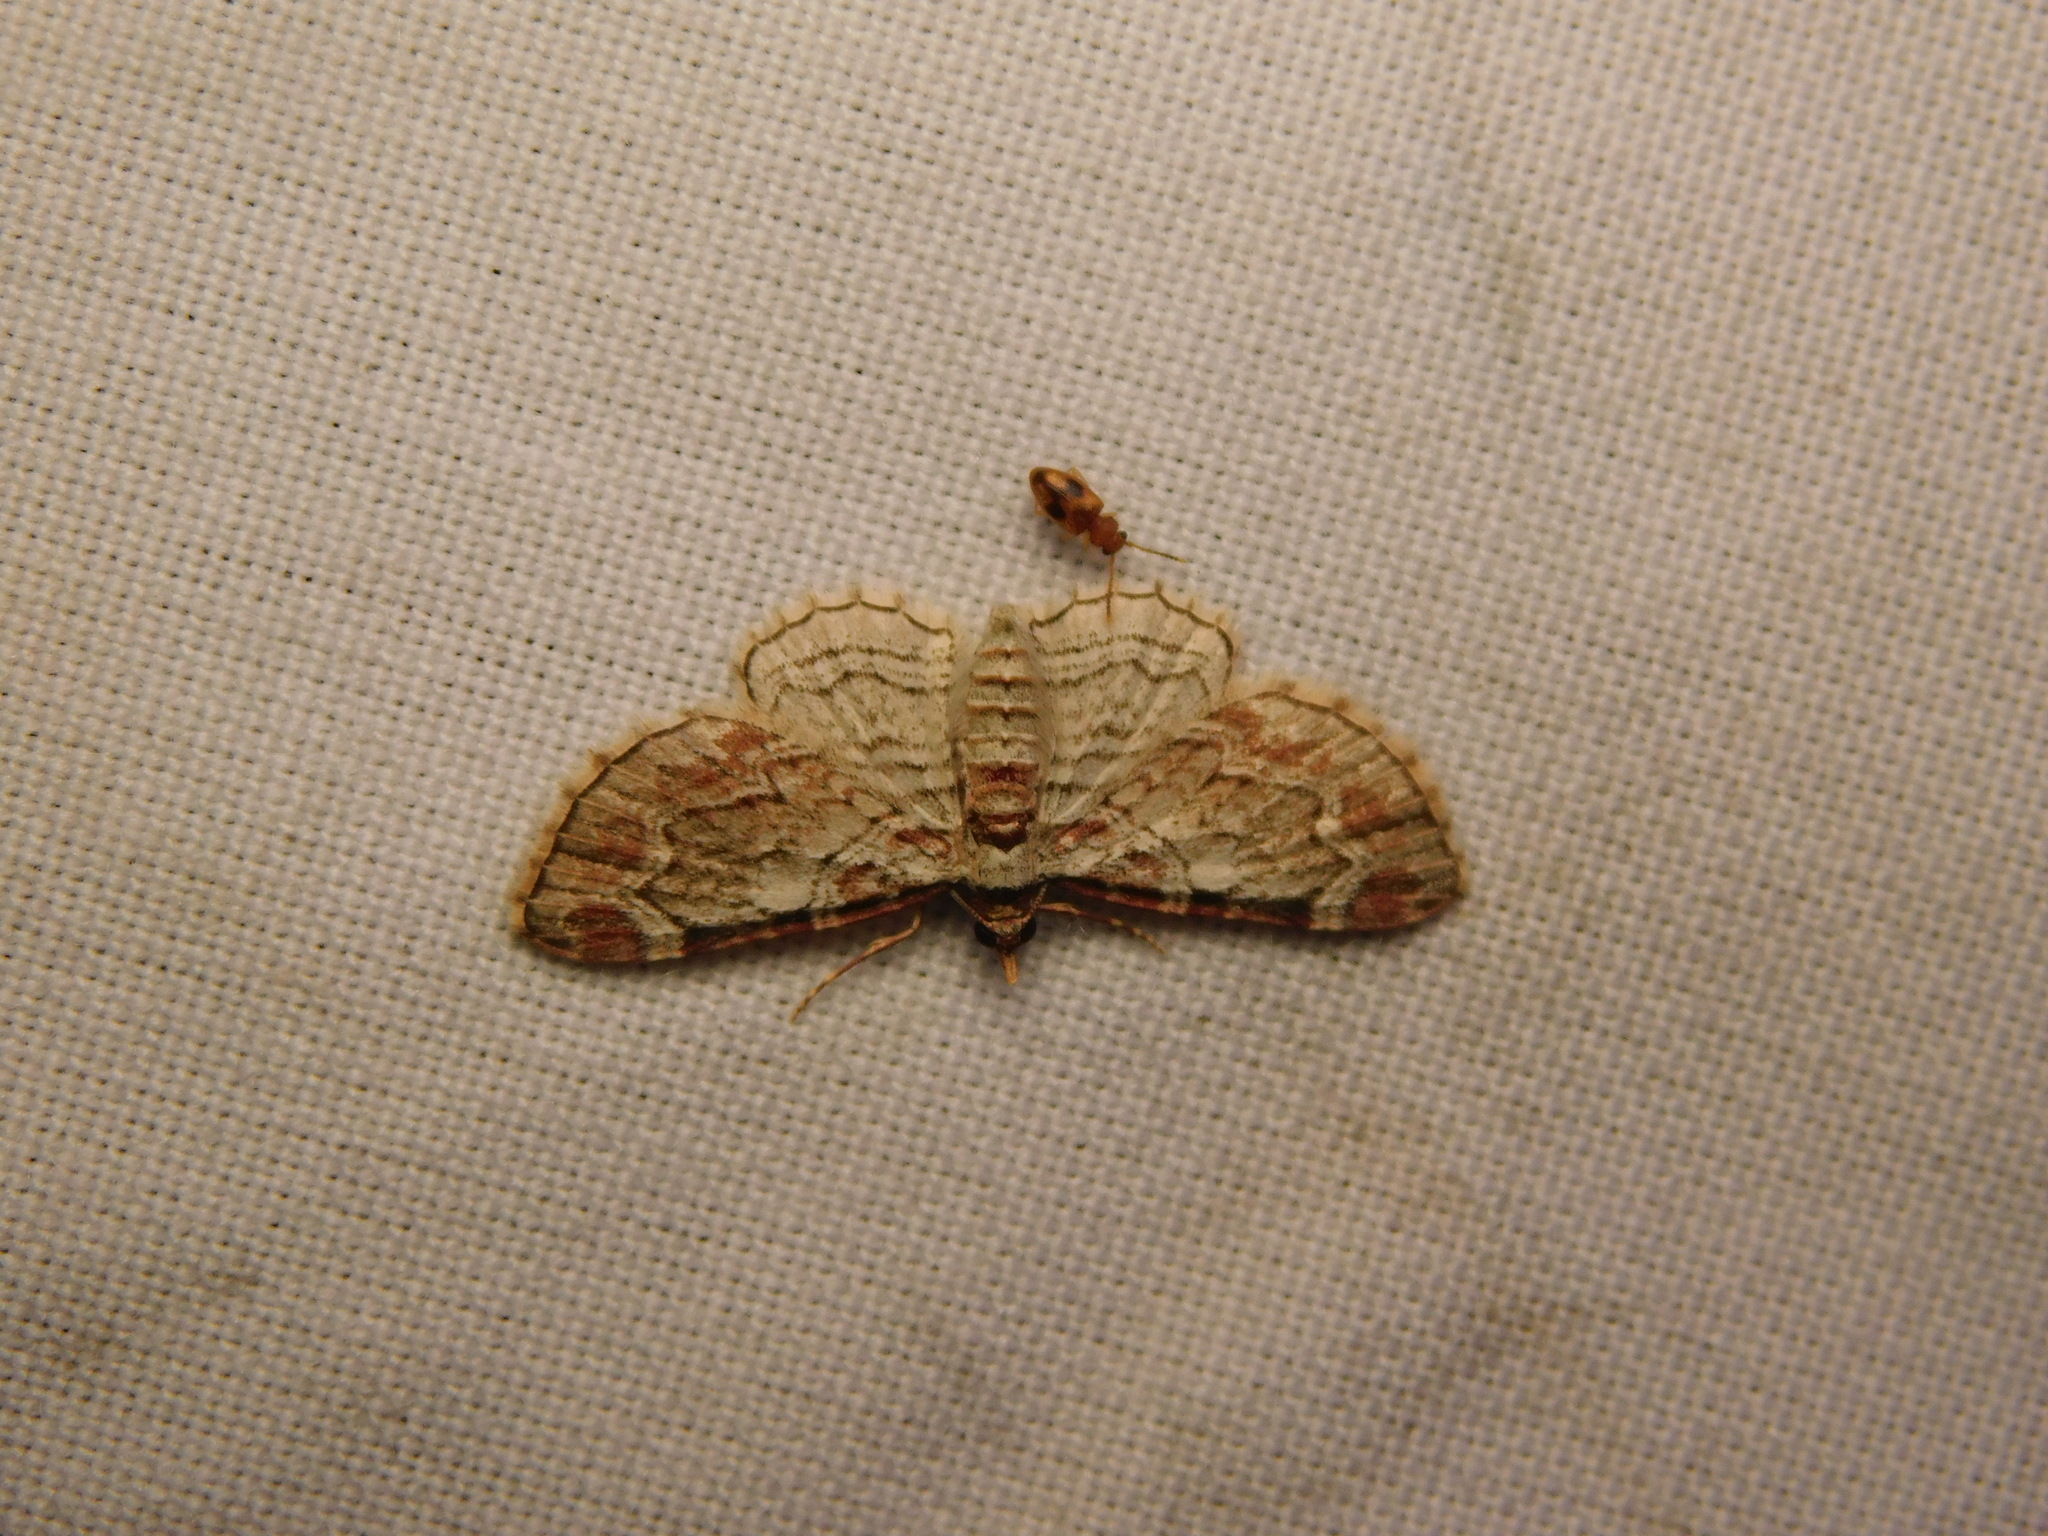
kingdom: Animalia
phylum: Arthropoda
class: Insecta
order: Lepidoptera
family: Geometridae
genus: Eupithecia
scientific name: Eupithecia costalis
